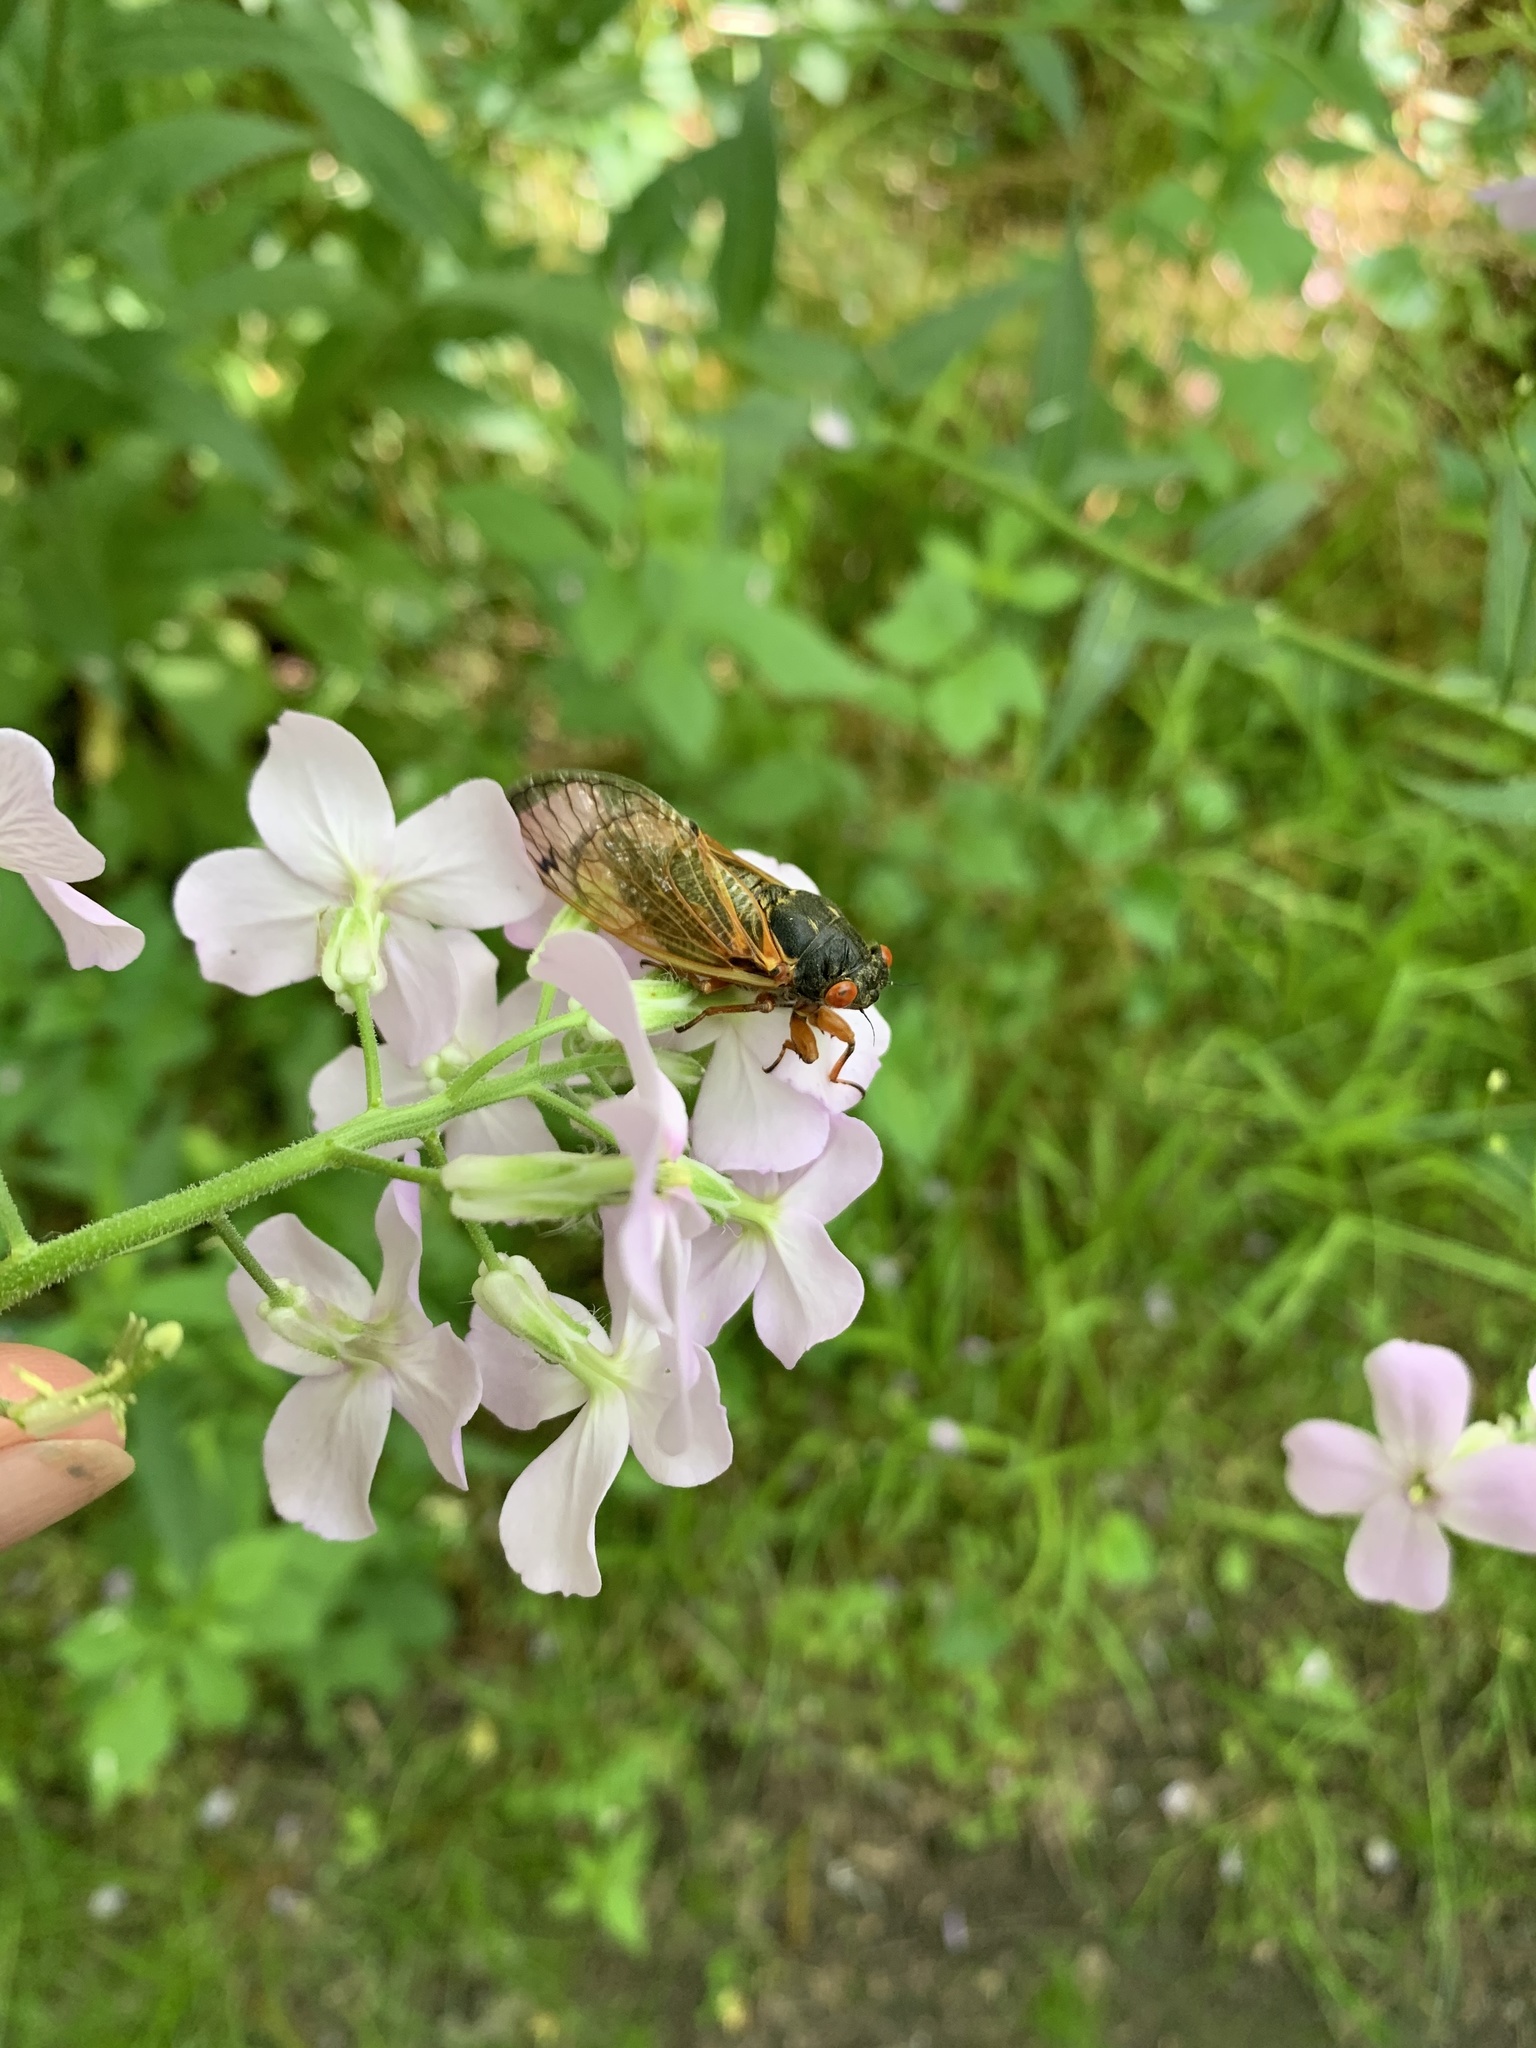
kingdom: Animalia
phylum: Arthropoda
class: Insecta
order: Hemiptera
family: Cicadidae
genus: Magicicada
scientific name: Magicicada
